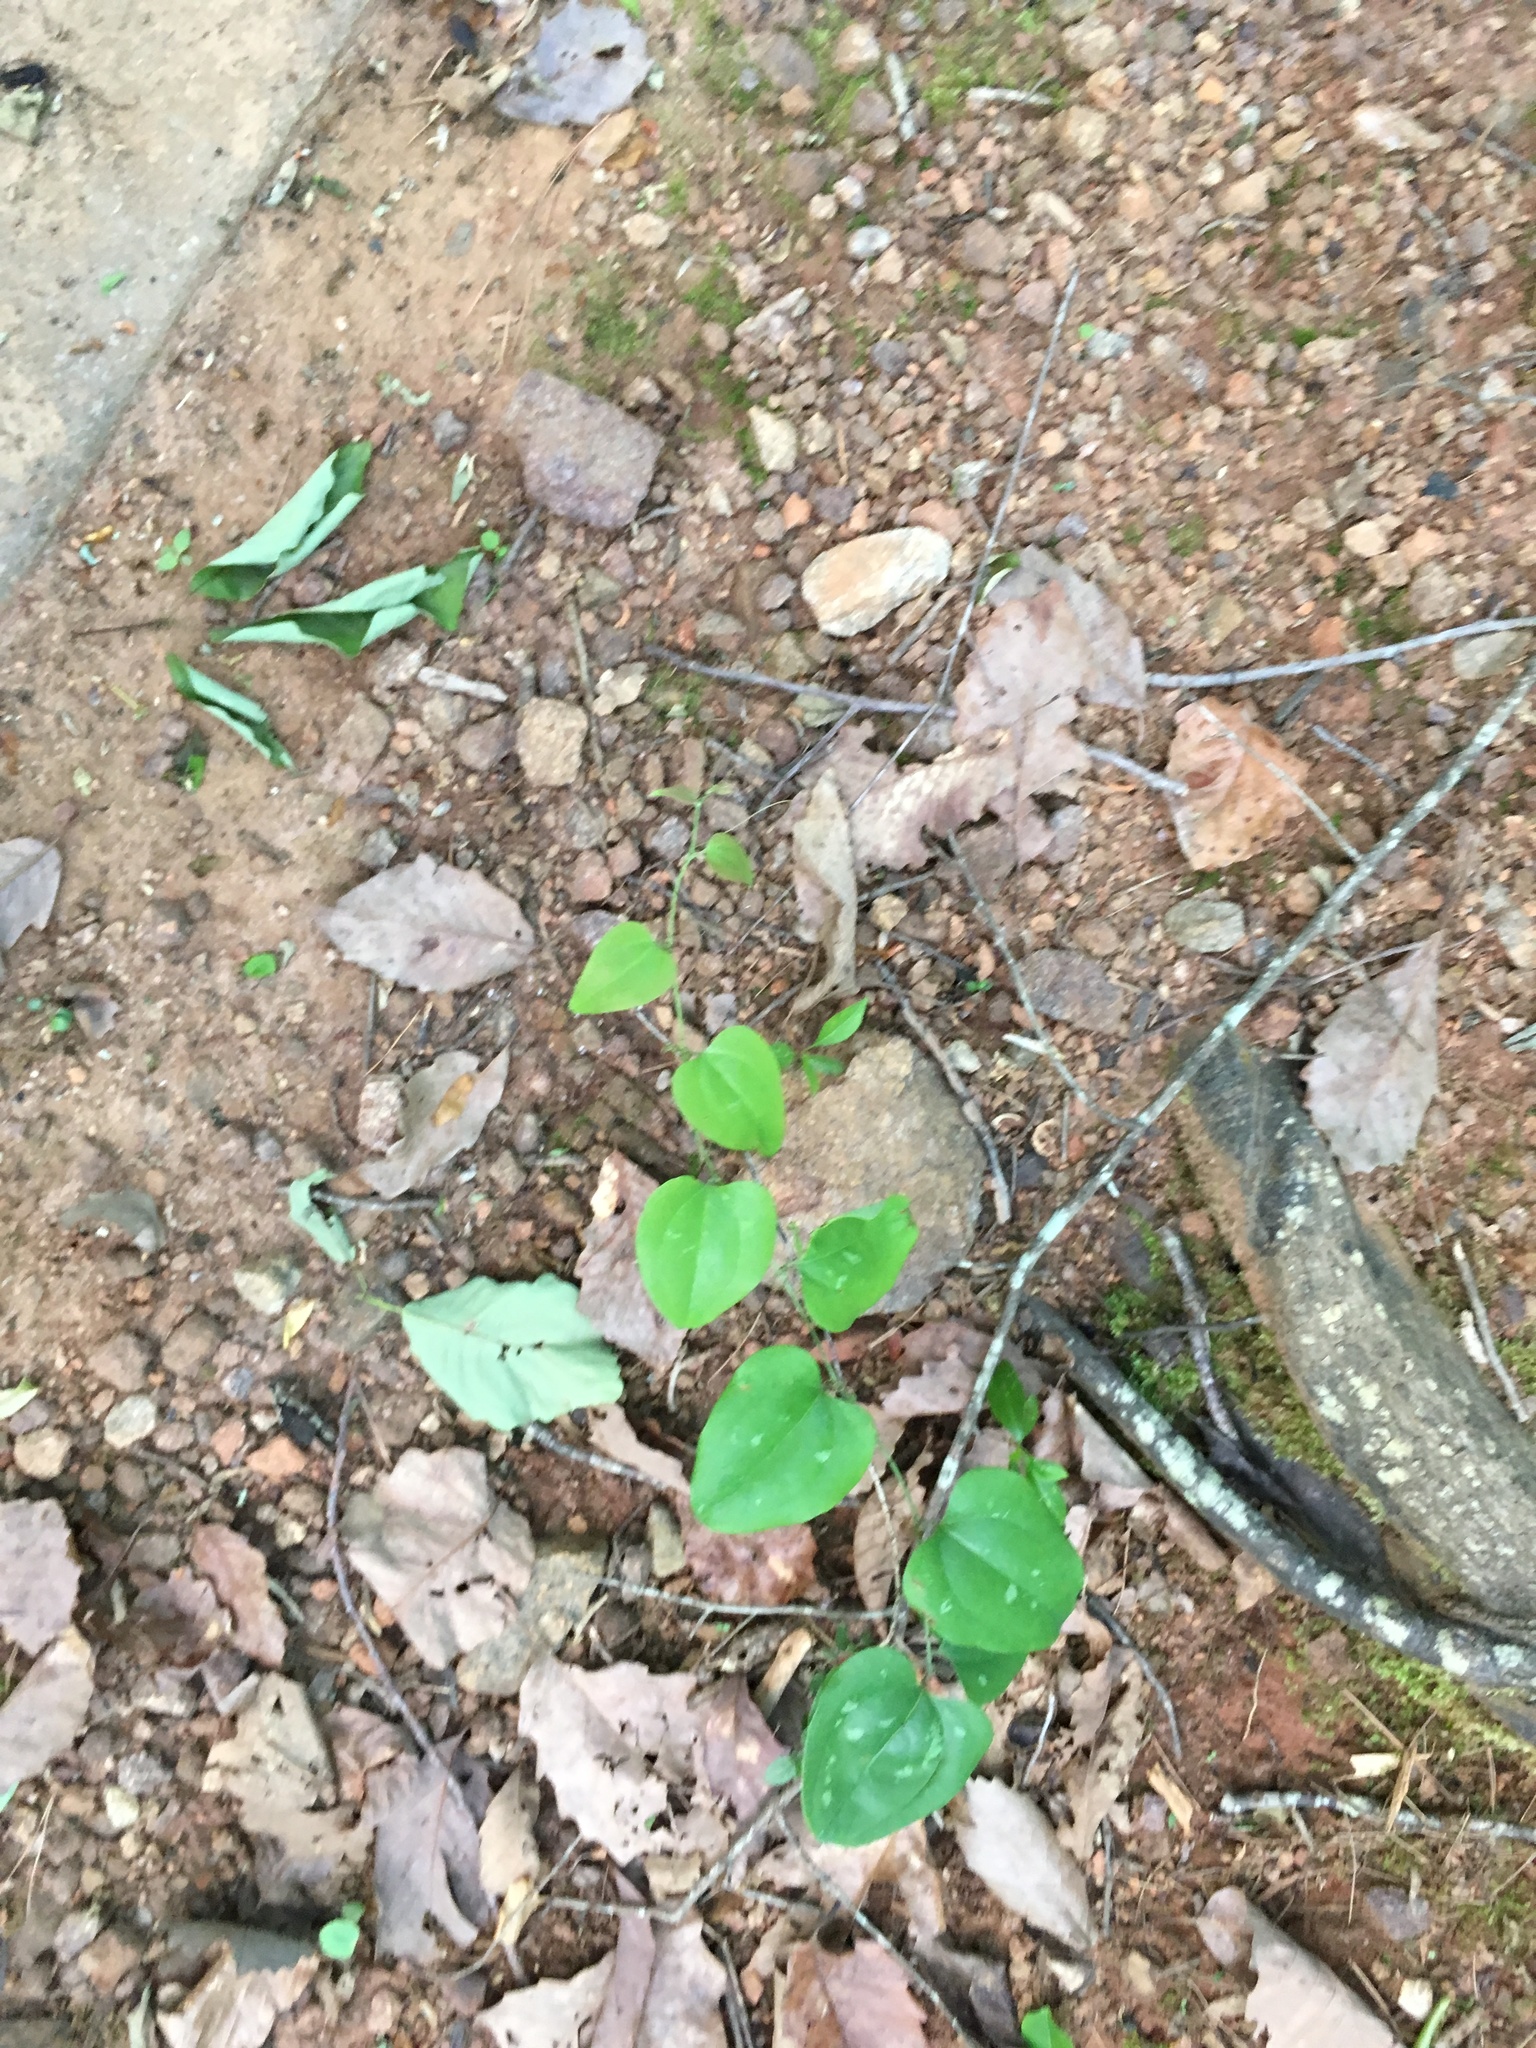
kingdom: Plantae
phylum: Tracheophyta
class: Liliopsida
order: Liliales
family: Smilacaceae
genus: Smilax
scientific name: Smilax rotundifolia
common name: Bullbriar
